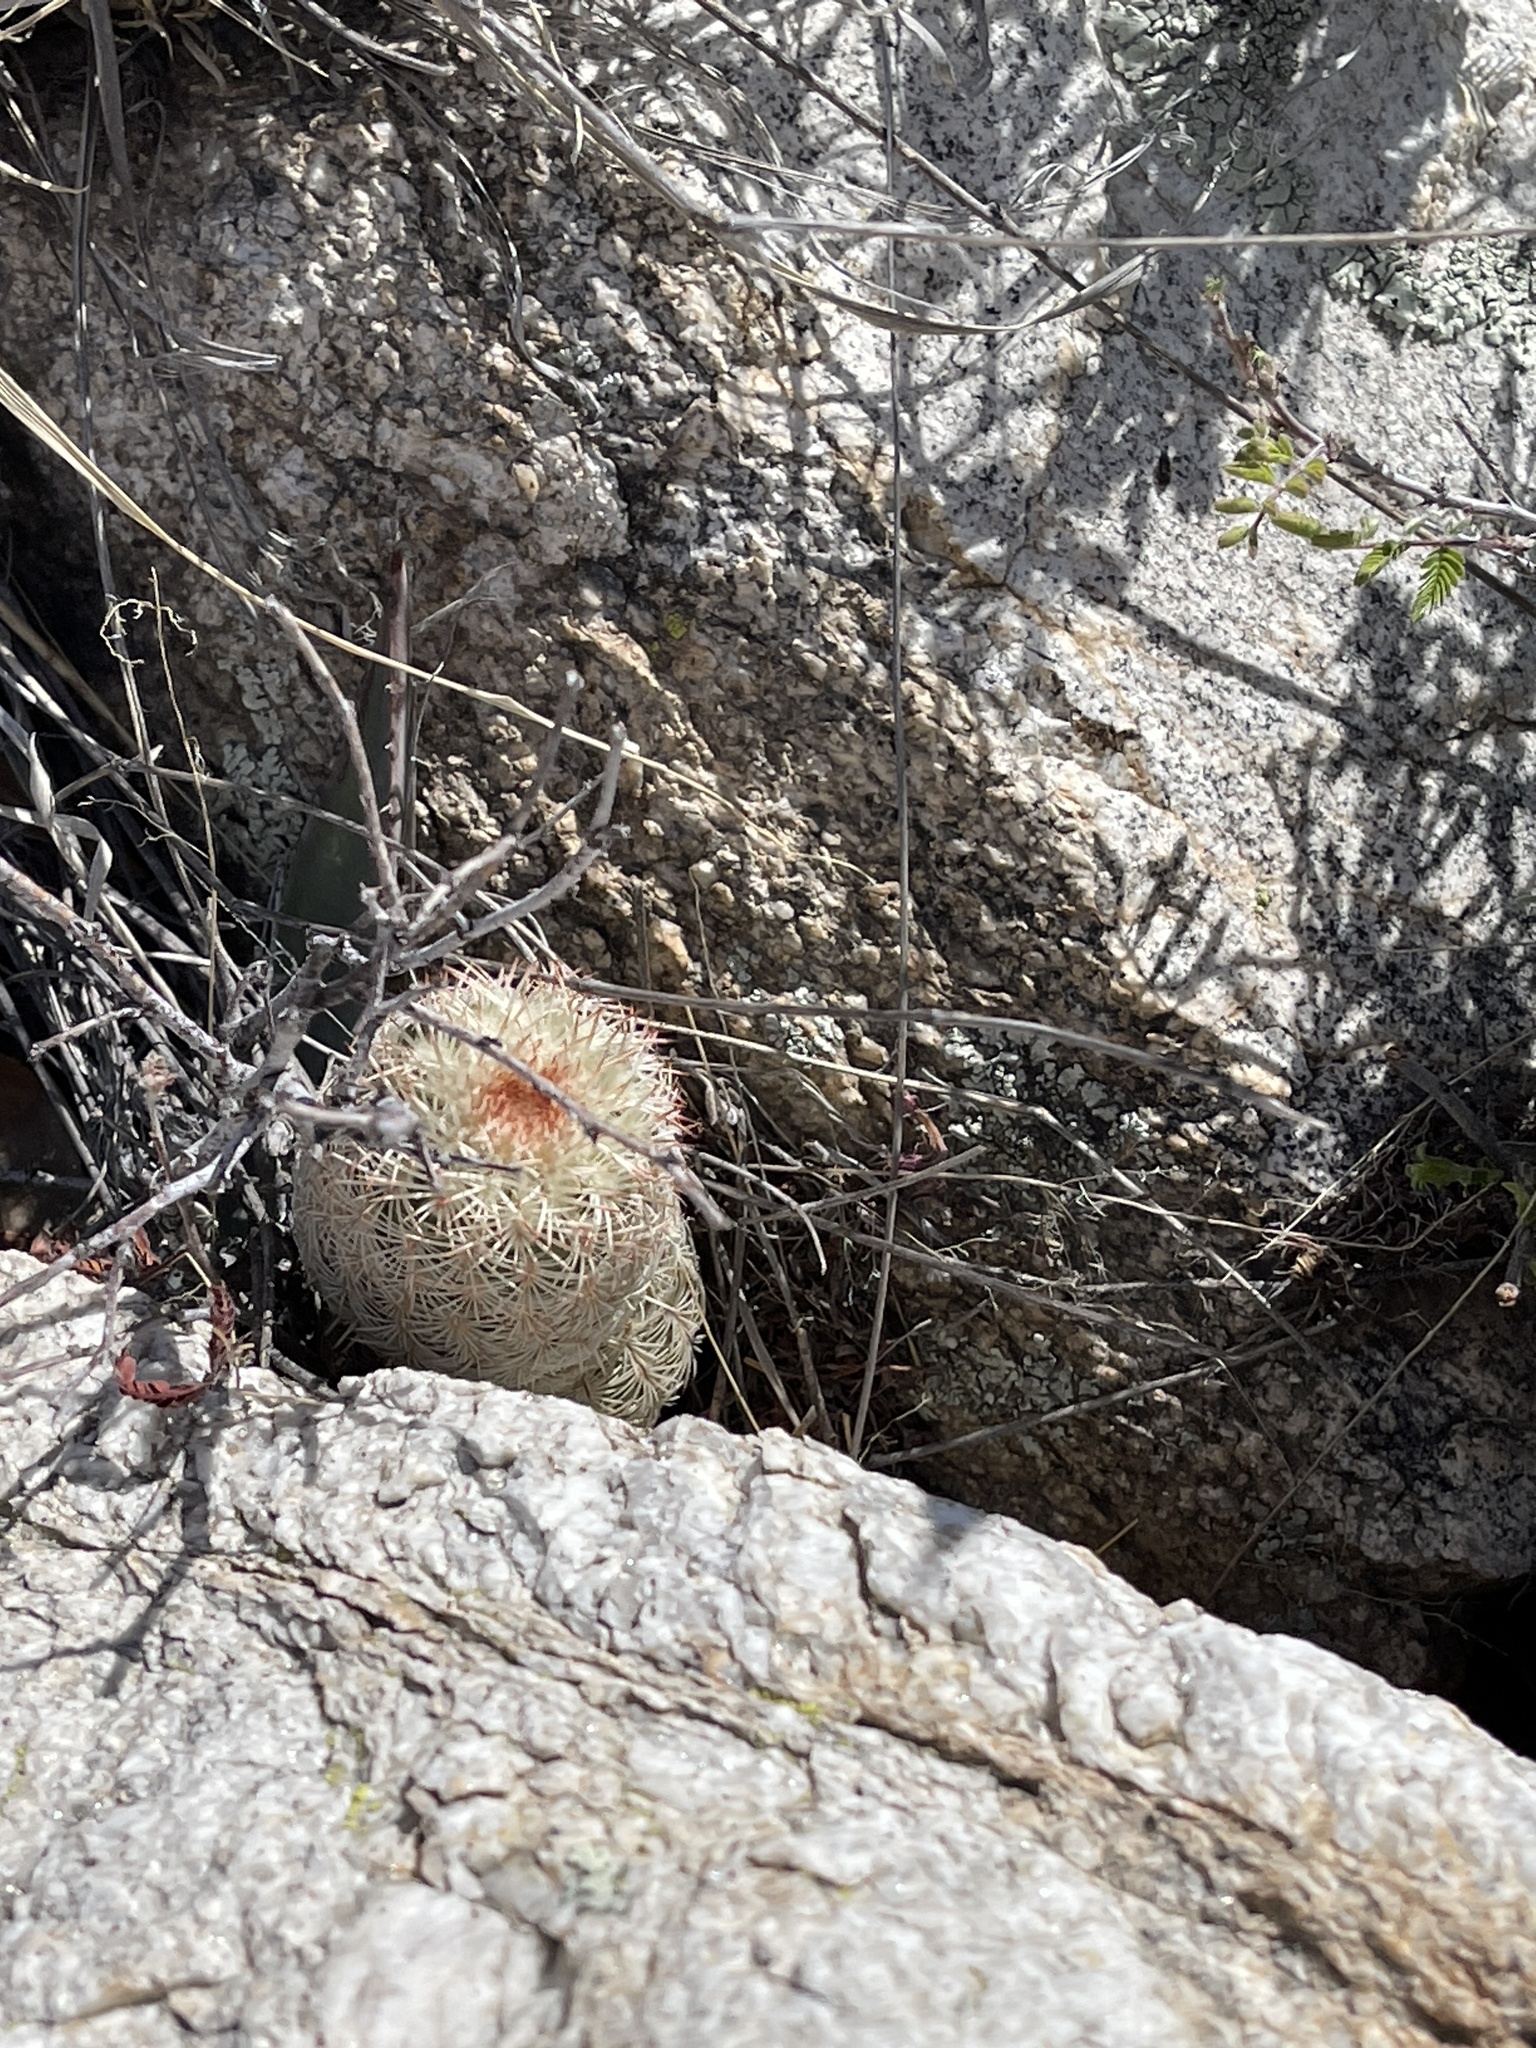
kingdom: Plantae
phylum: Tracheophyta
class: Magnoliopsida
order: Caryophyllales
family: Cactaceae
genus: Echinocereus
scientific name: Echinocereus rigidissimus
